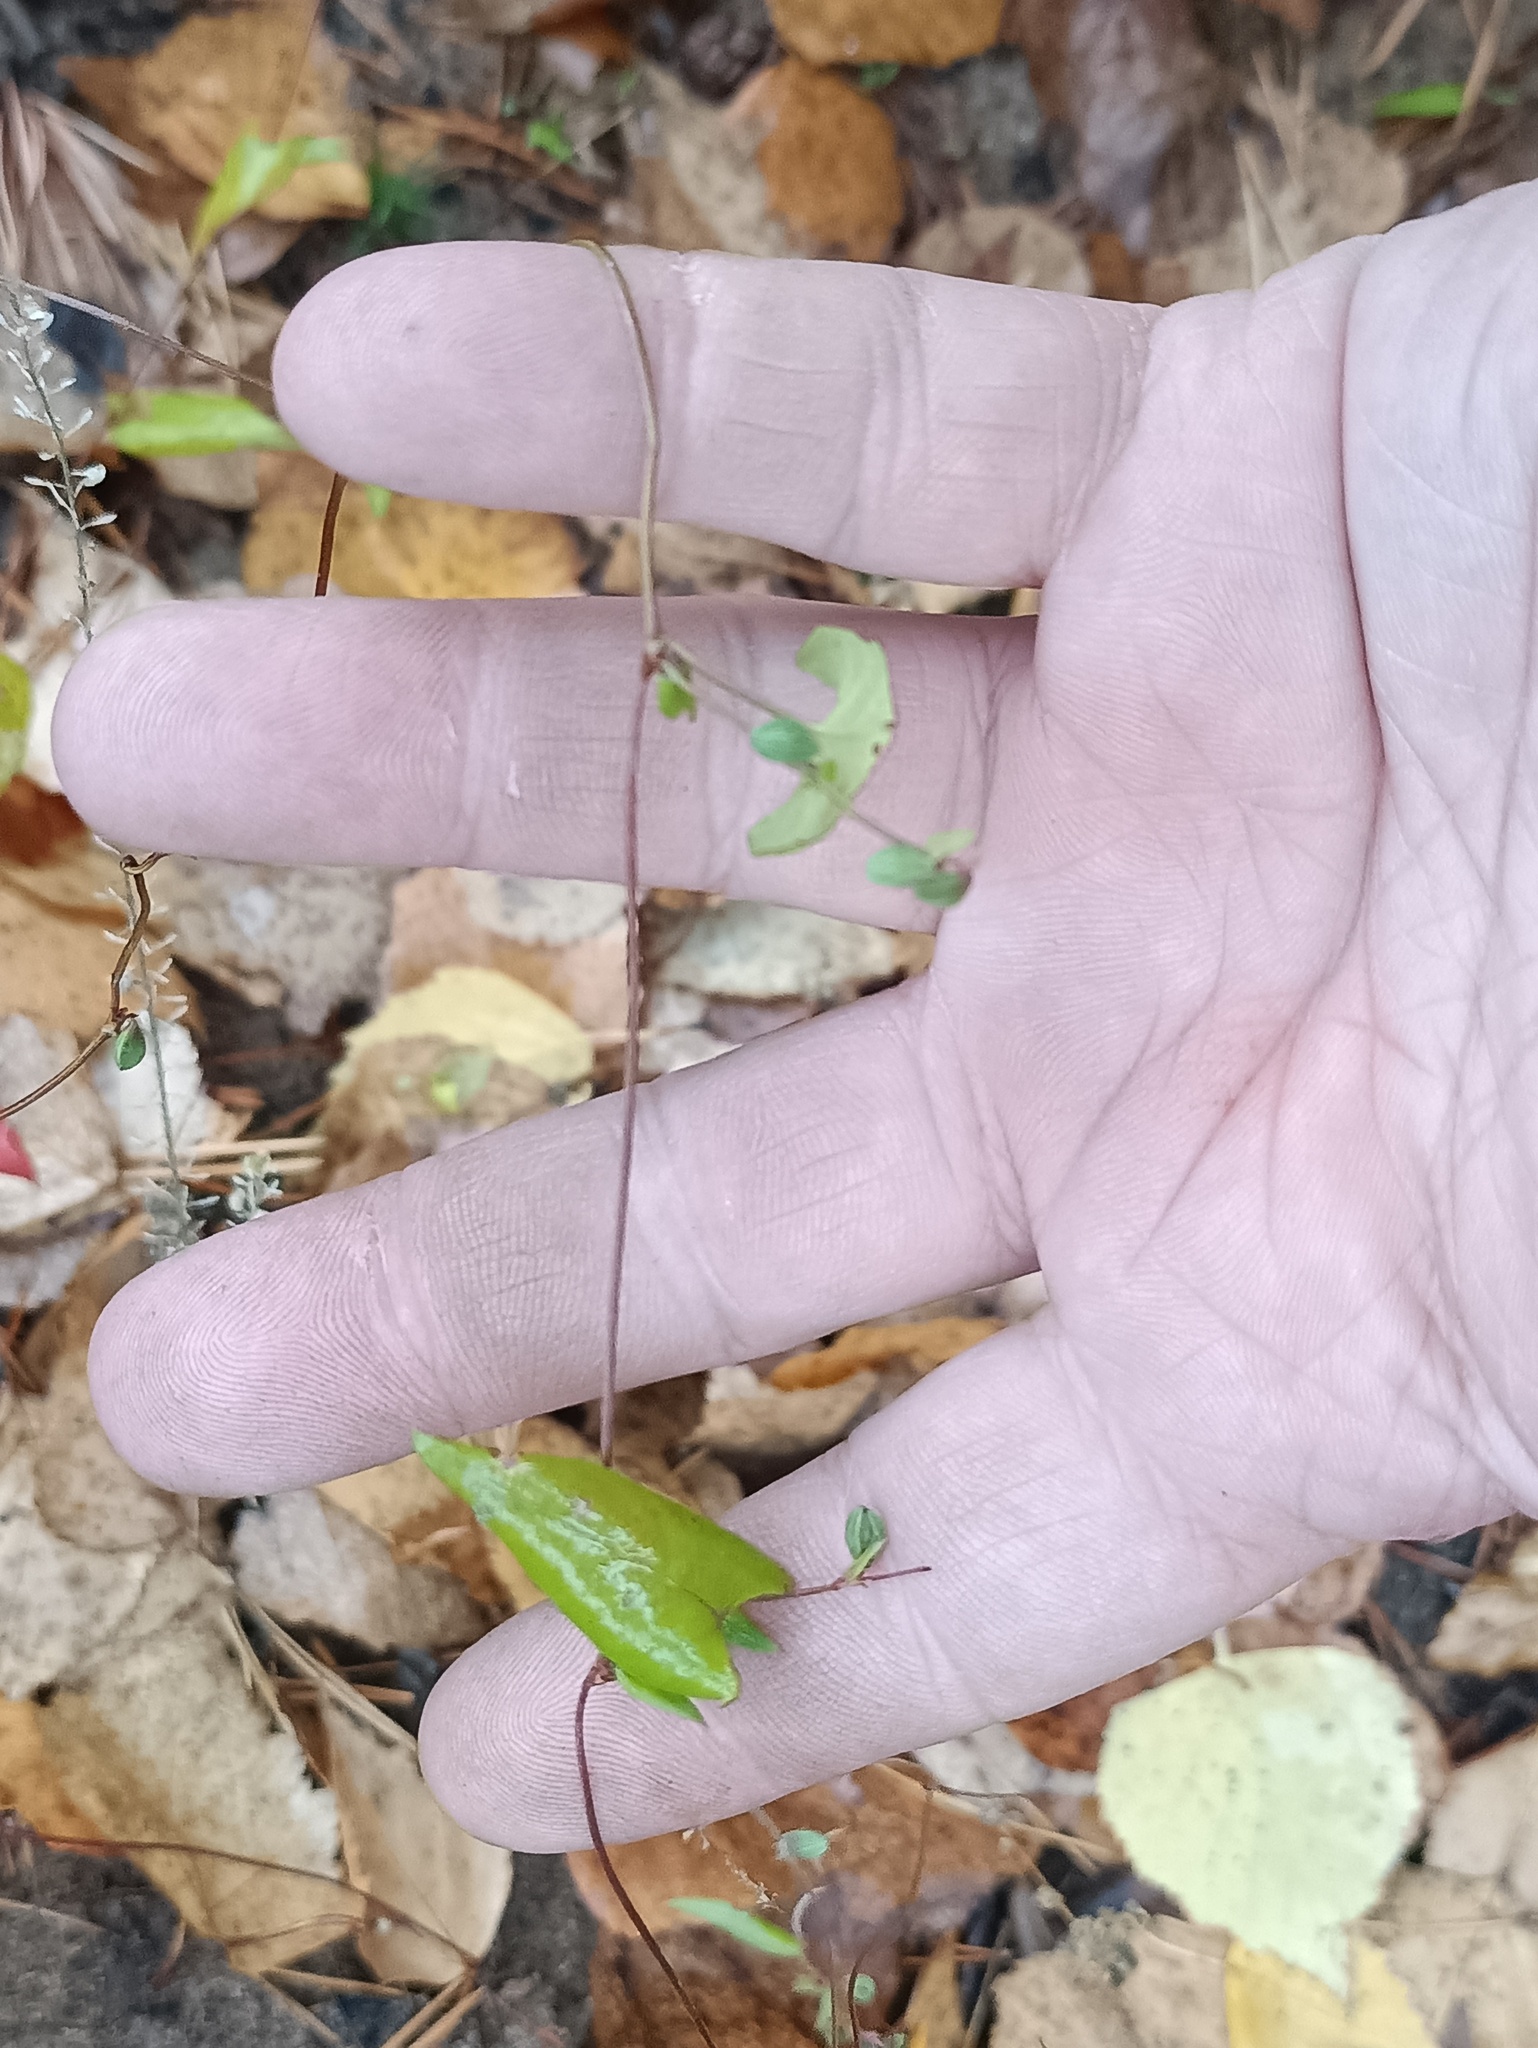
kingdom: Plantae
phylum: Tracheophyta
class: Magnoliopsida
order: Caryophyllales
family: Polygonaceae
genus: Fallopia
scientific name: Fallopia convolvulus
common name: Black bindweed
